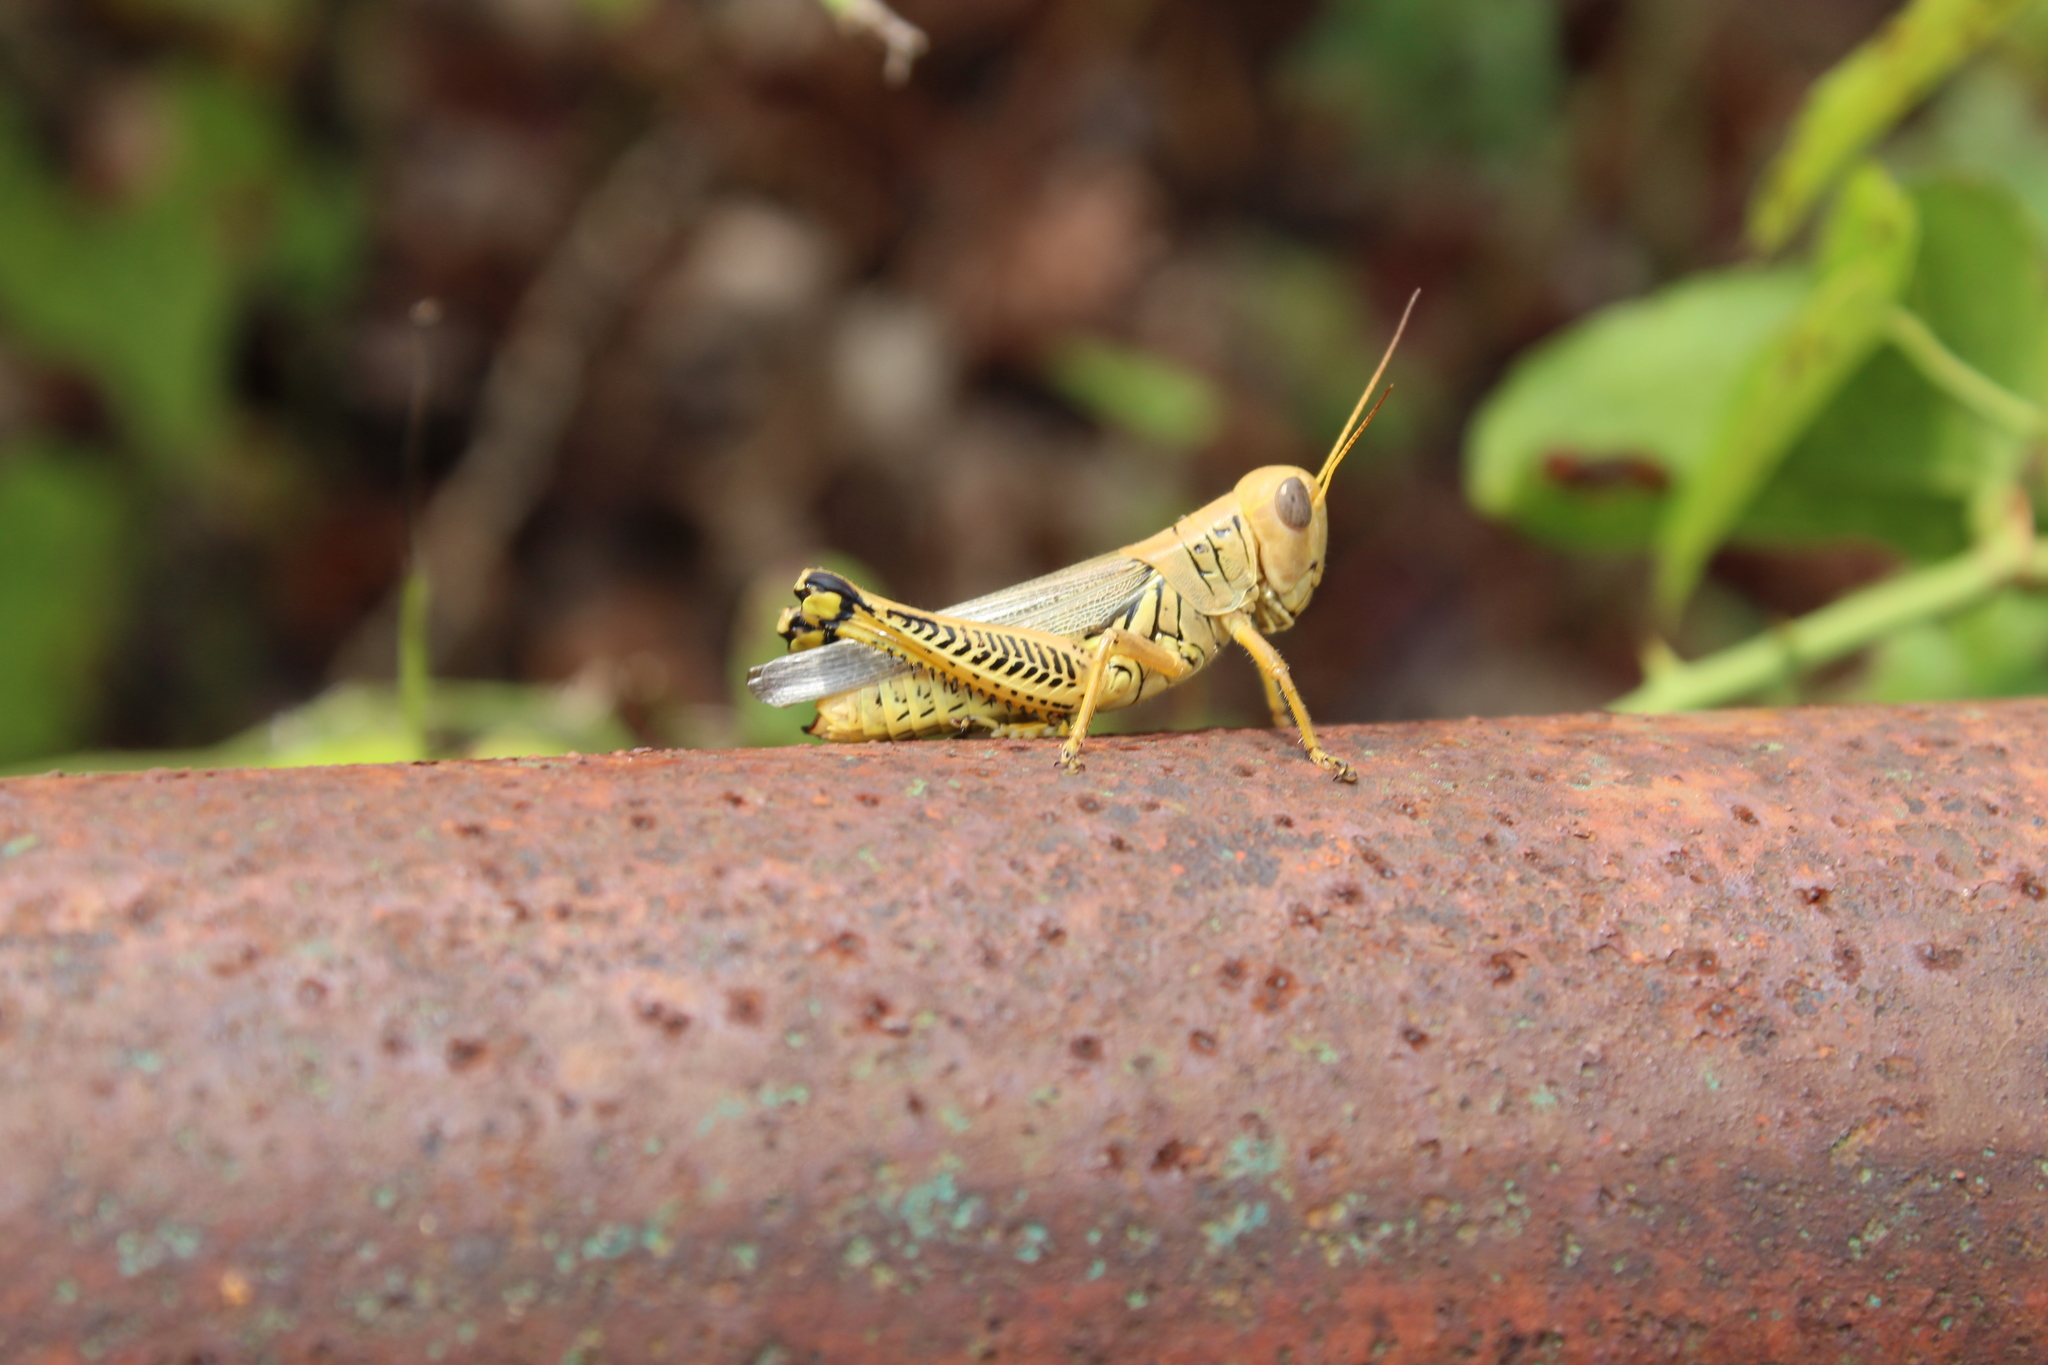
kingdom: Animalia
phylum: Arthropoda
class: Insecta
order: Orthoptera
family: Acrididae
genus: Melanoplus
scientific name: Melanoplus differentialis
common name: Differential grasshopper
